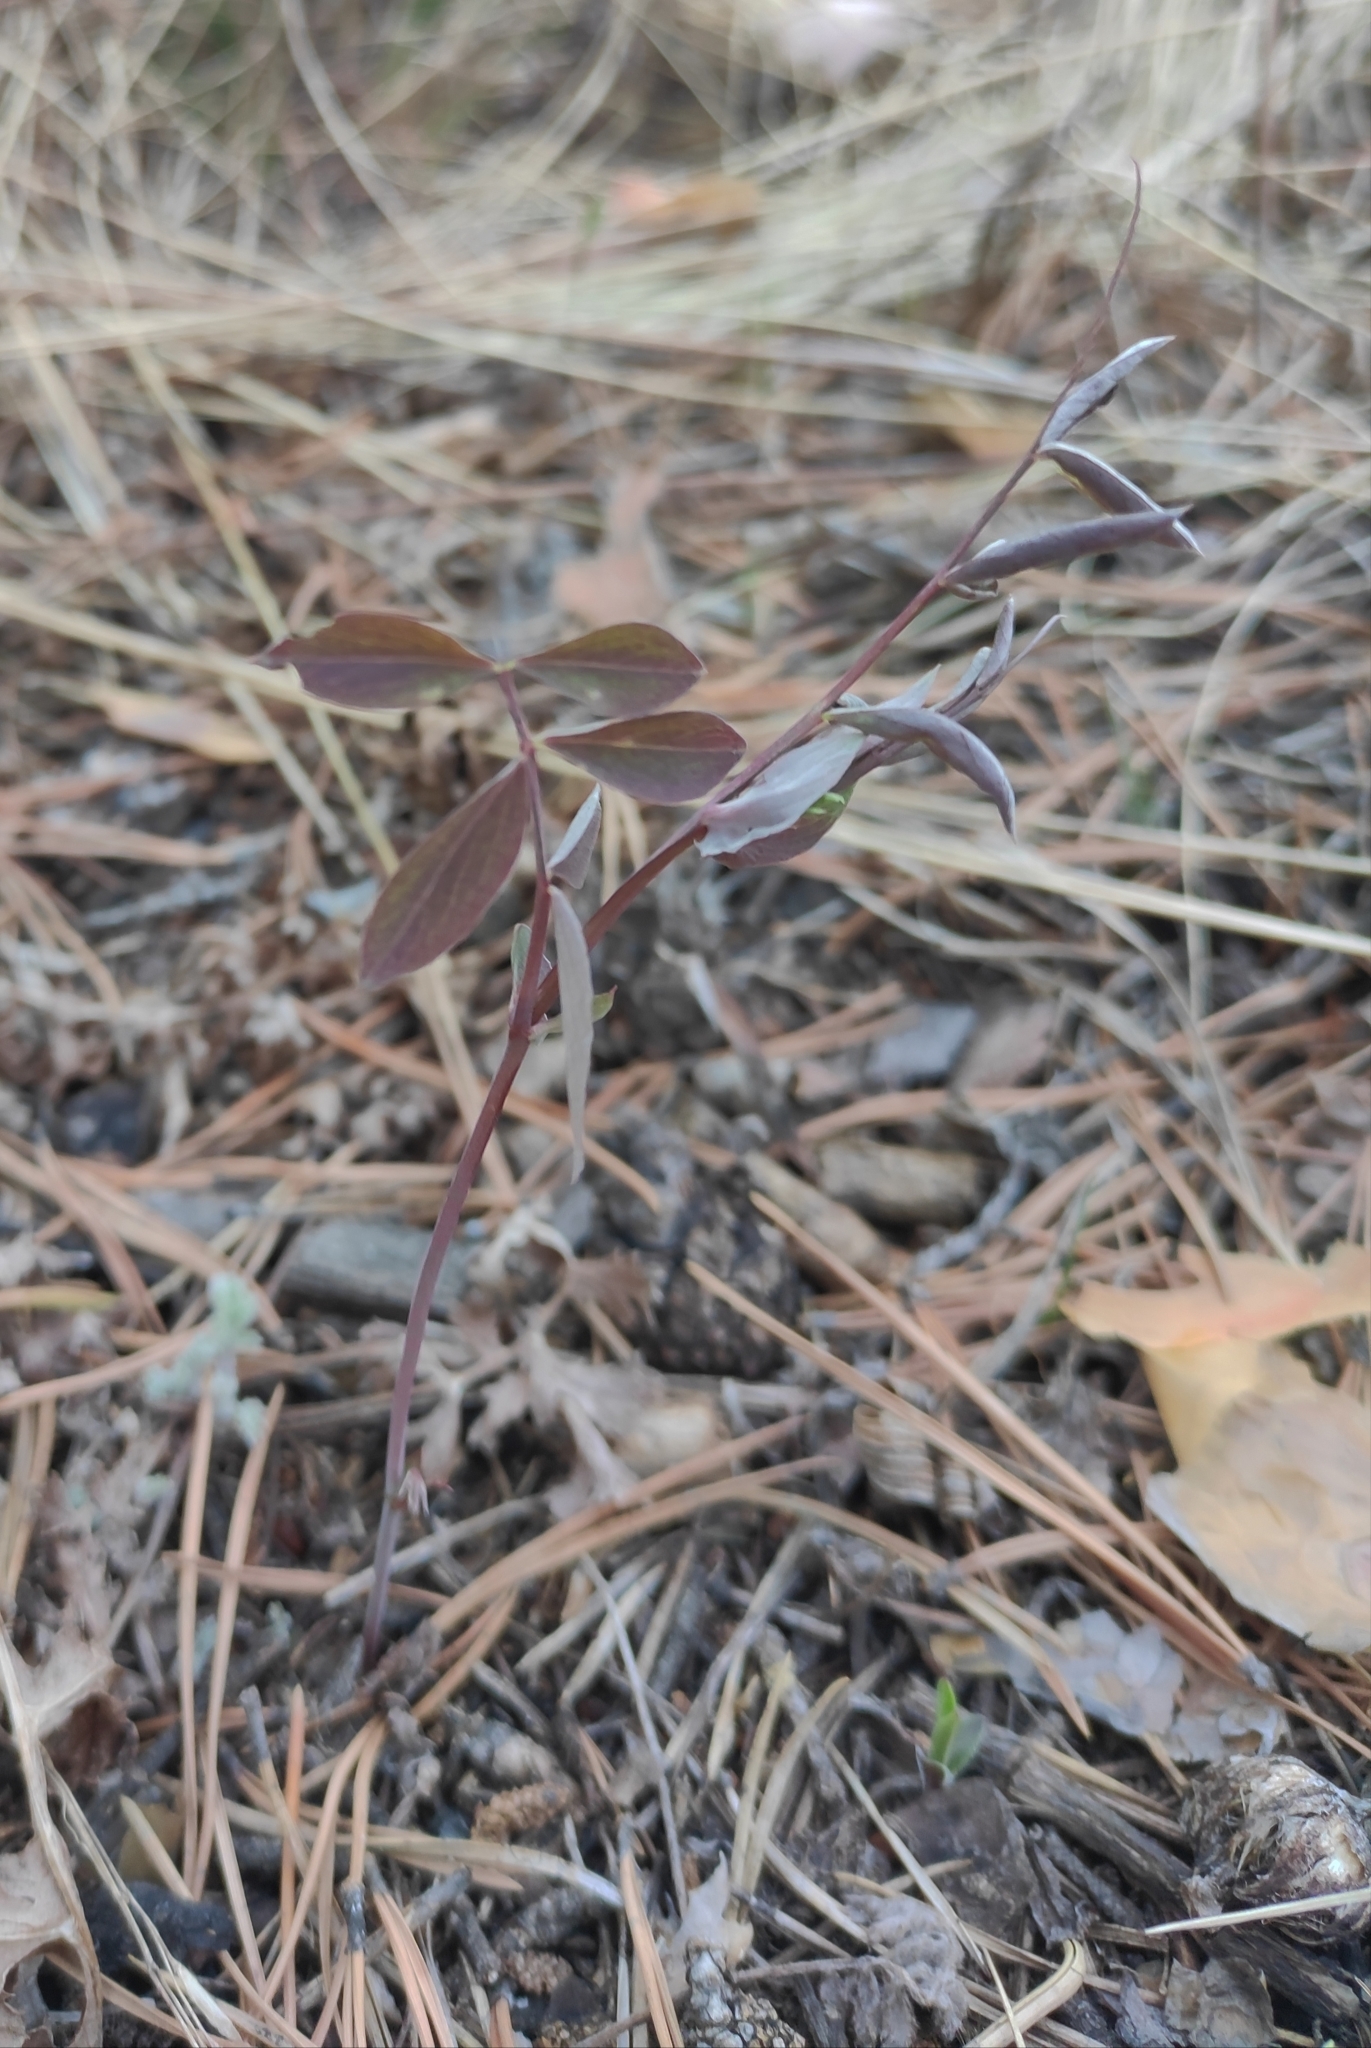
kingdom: Plantae
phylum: Tracheophyta
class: Magnoliopsida
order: Fabales
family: Fabaceae
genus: Lathyrus
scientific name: Lathyrus humilis
